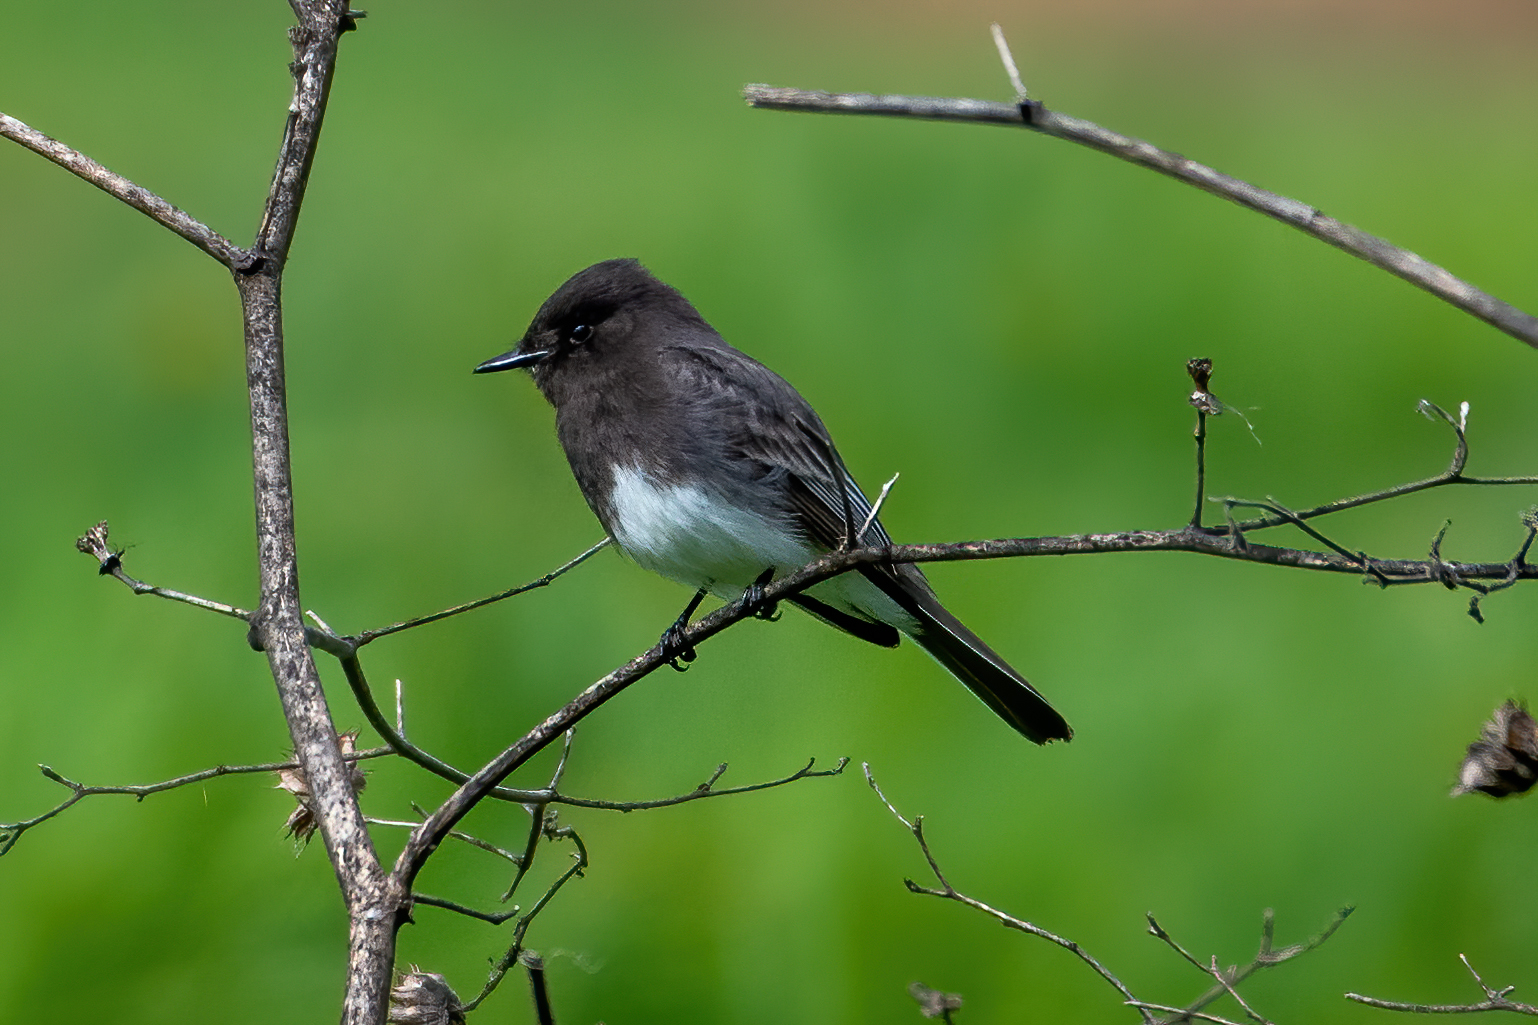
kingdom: Animalia
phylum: Chordata
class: Aves
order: Passeriformes
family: Tyrannidae
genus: Sayornis
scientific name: Sayornis nigricans
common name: Black phoebe
